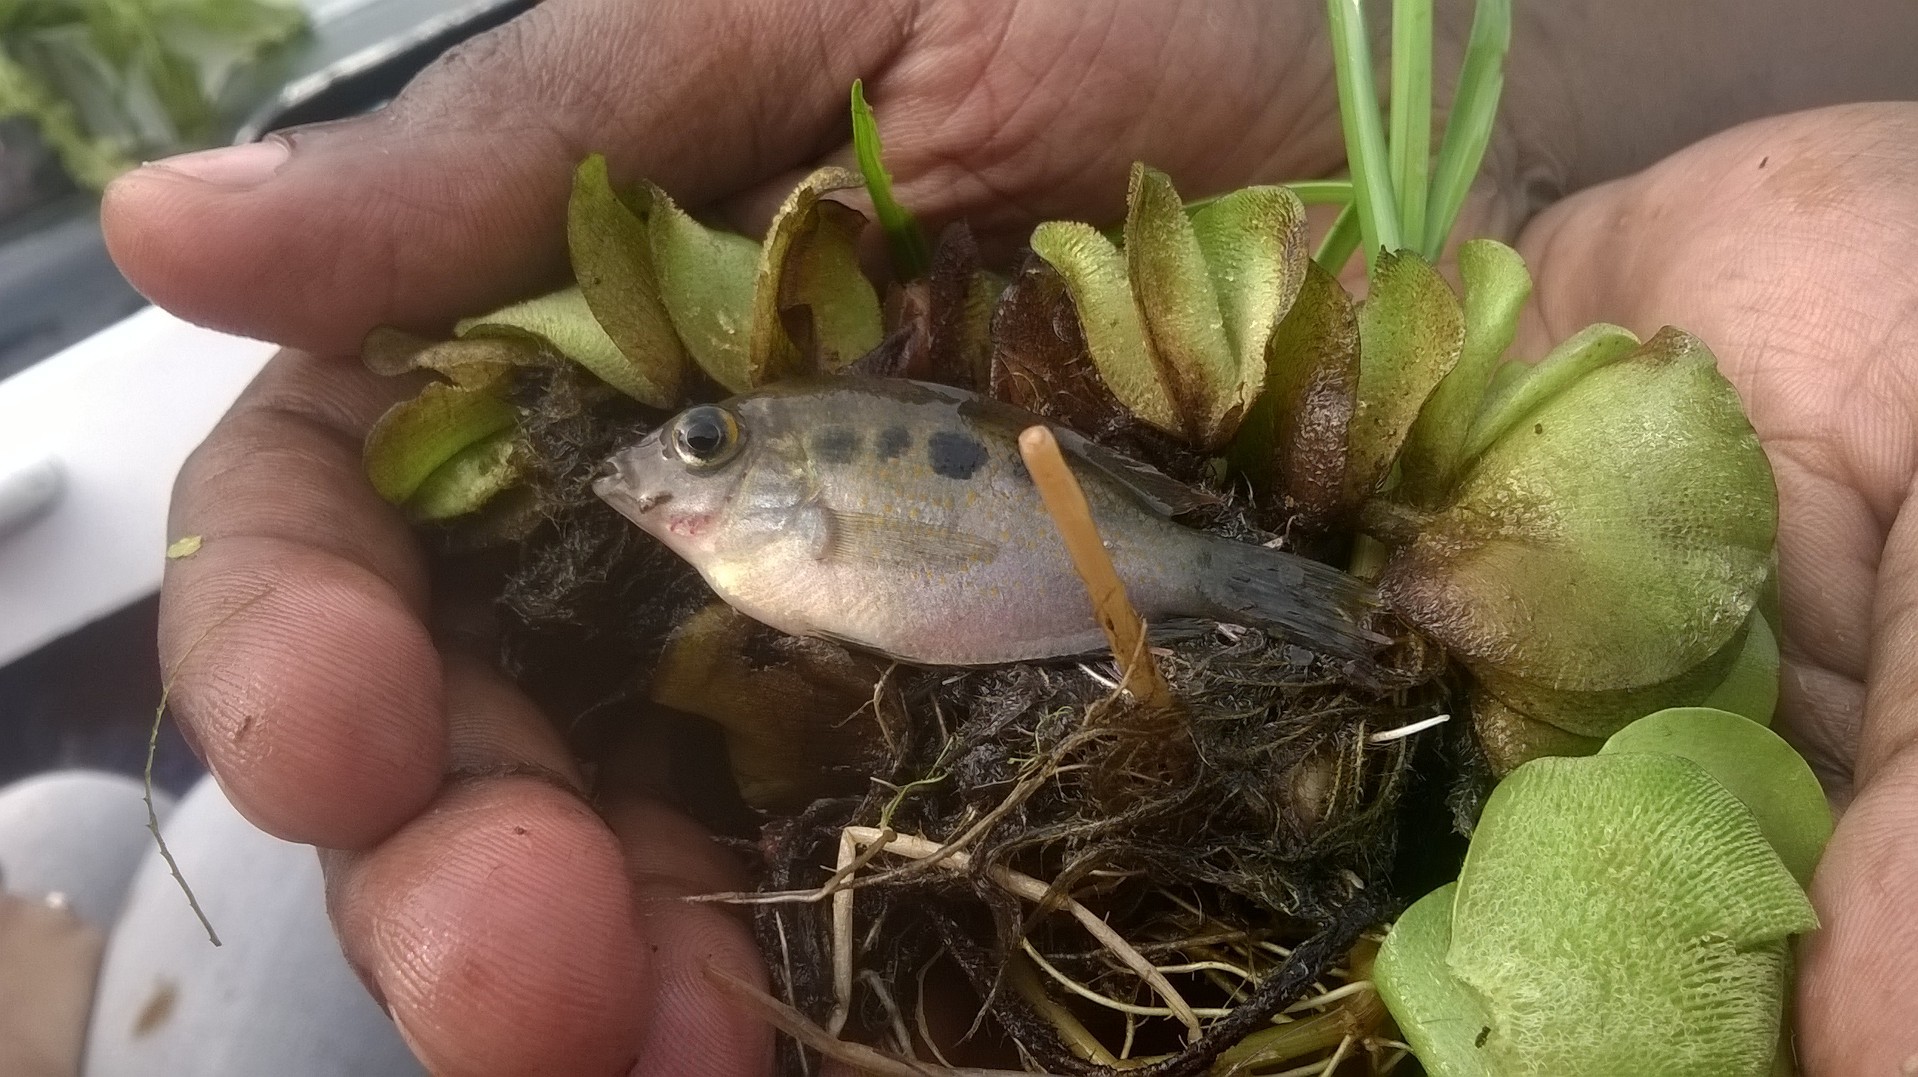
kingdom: Animalia
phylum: Chordata
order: Perciformes
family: Cichlidae
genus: Etroplus
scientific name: Etroplus maculatus
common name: Orange chromide
